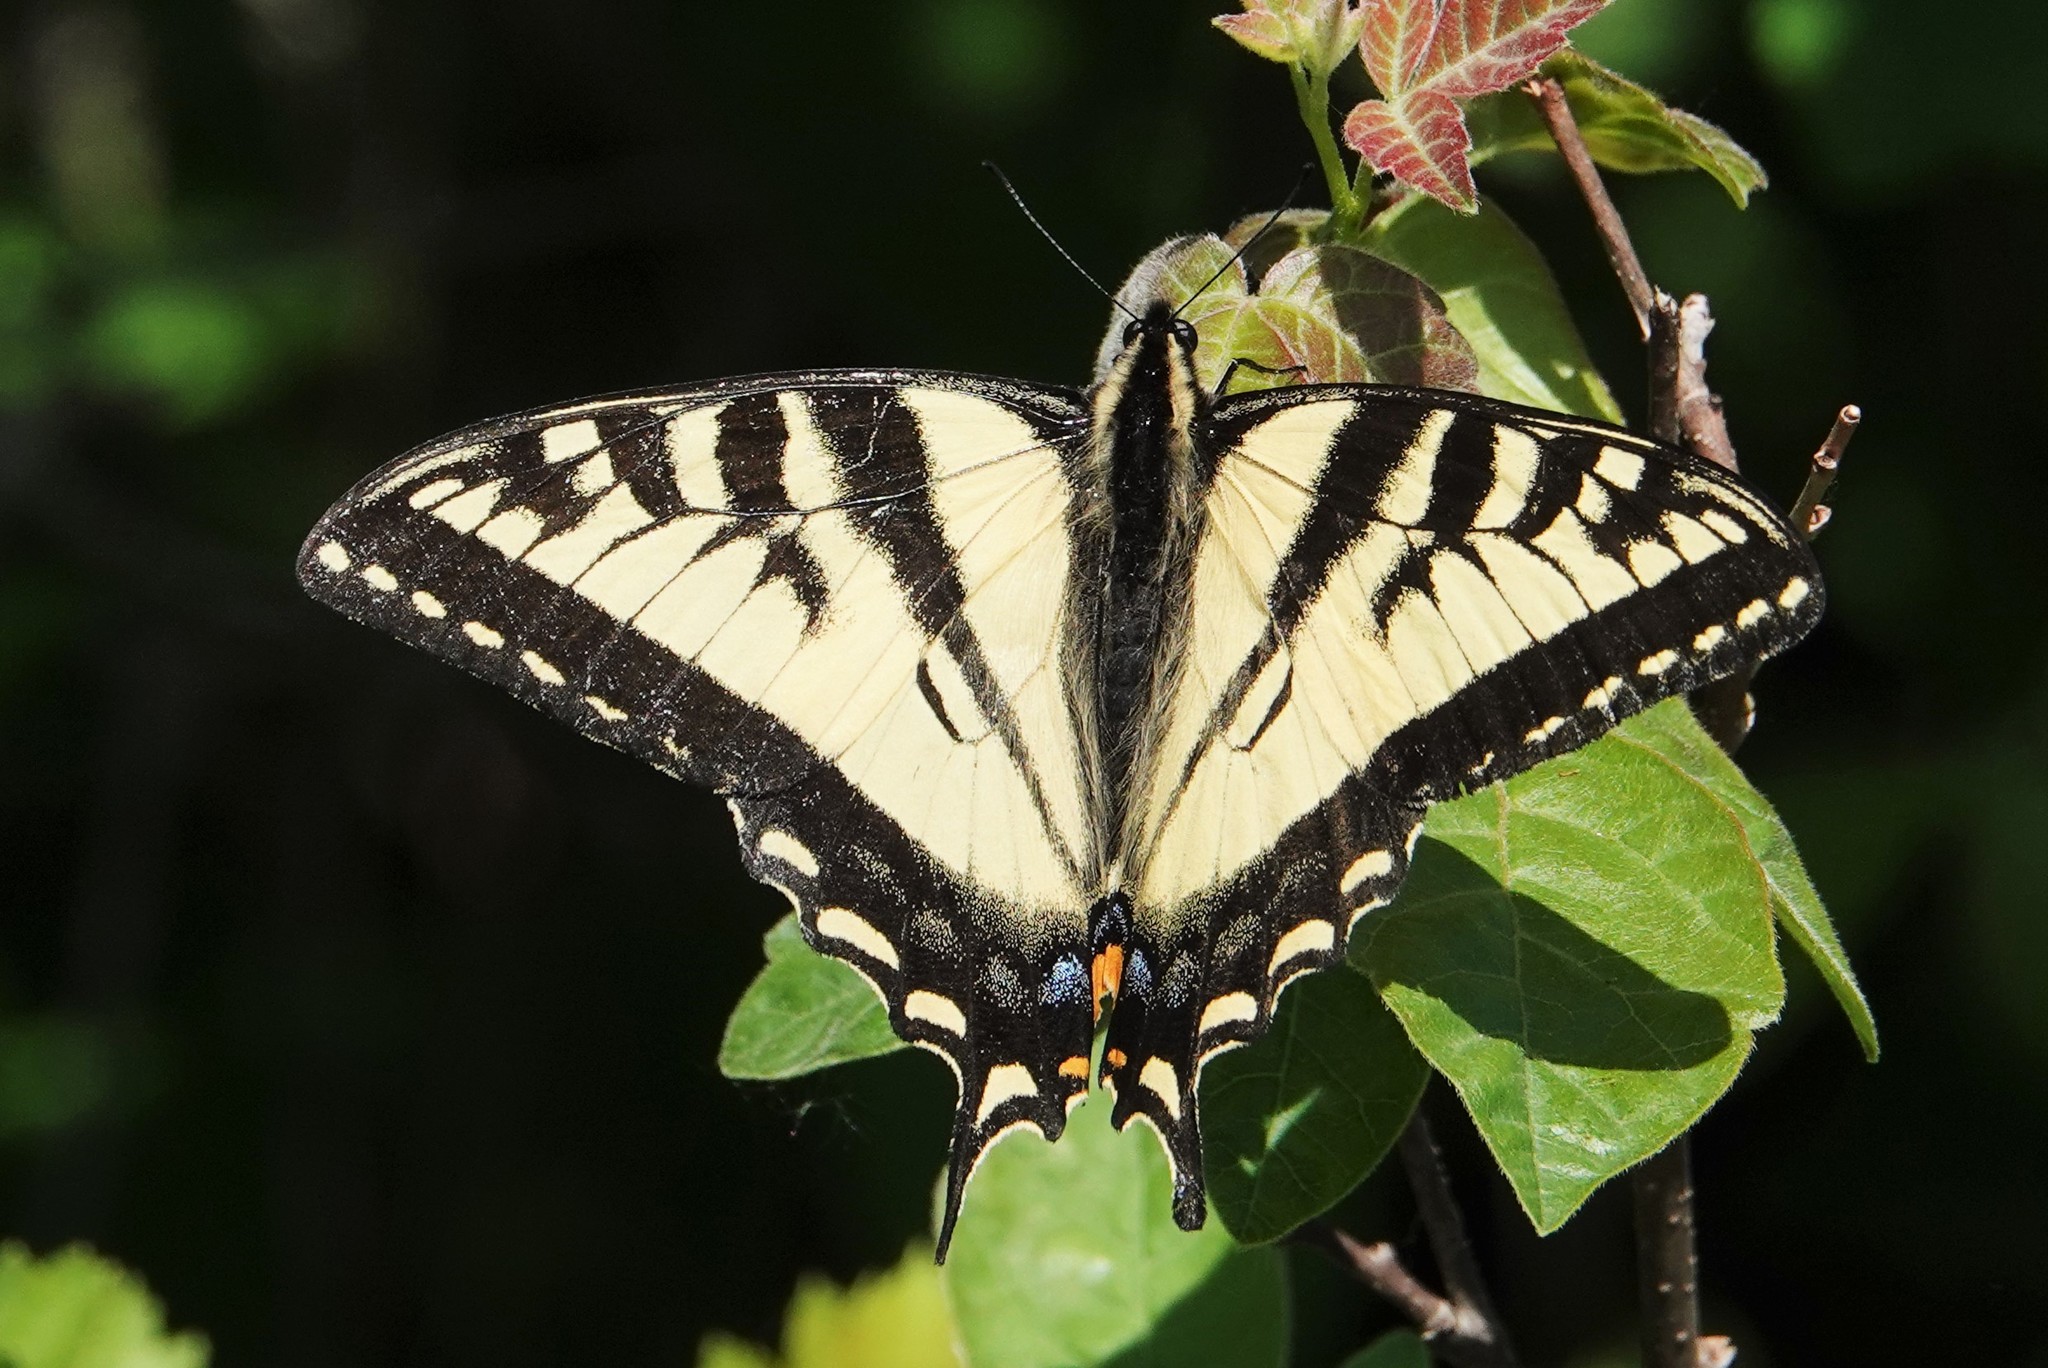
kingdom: Animalia
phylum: Arthropoda
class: Insecta
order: Lepidoptera
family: Papilionidae
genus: Papilio
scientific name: Papilio canadensis
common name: Canadian tiger swallowtail
